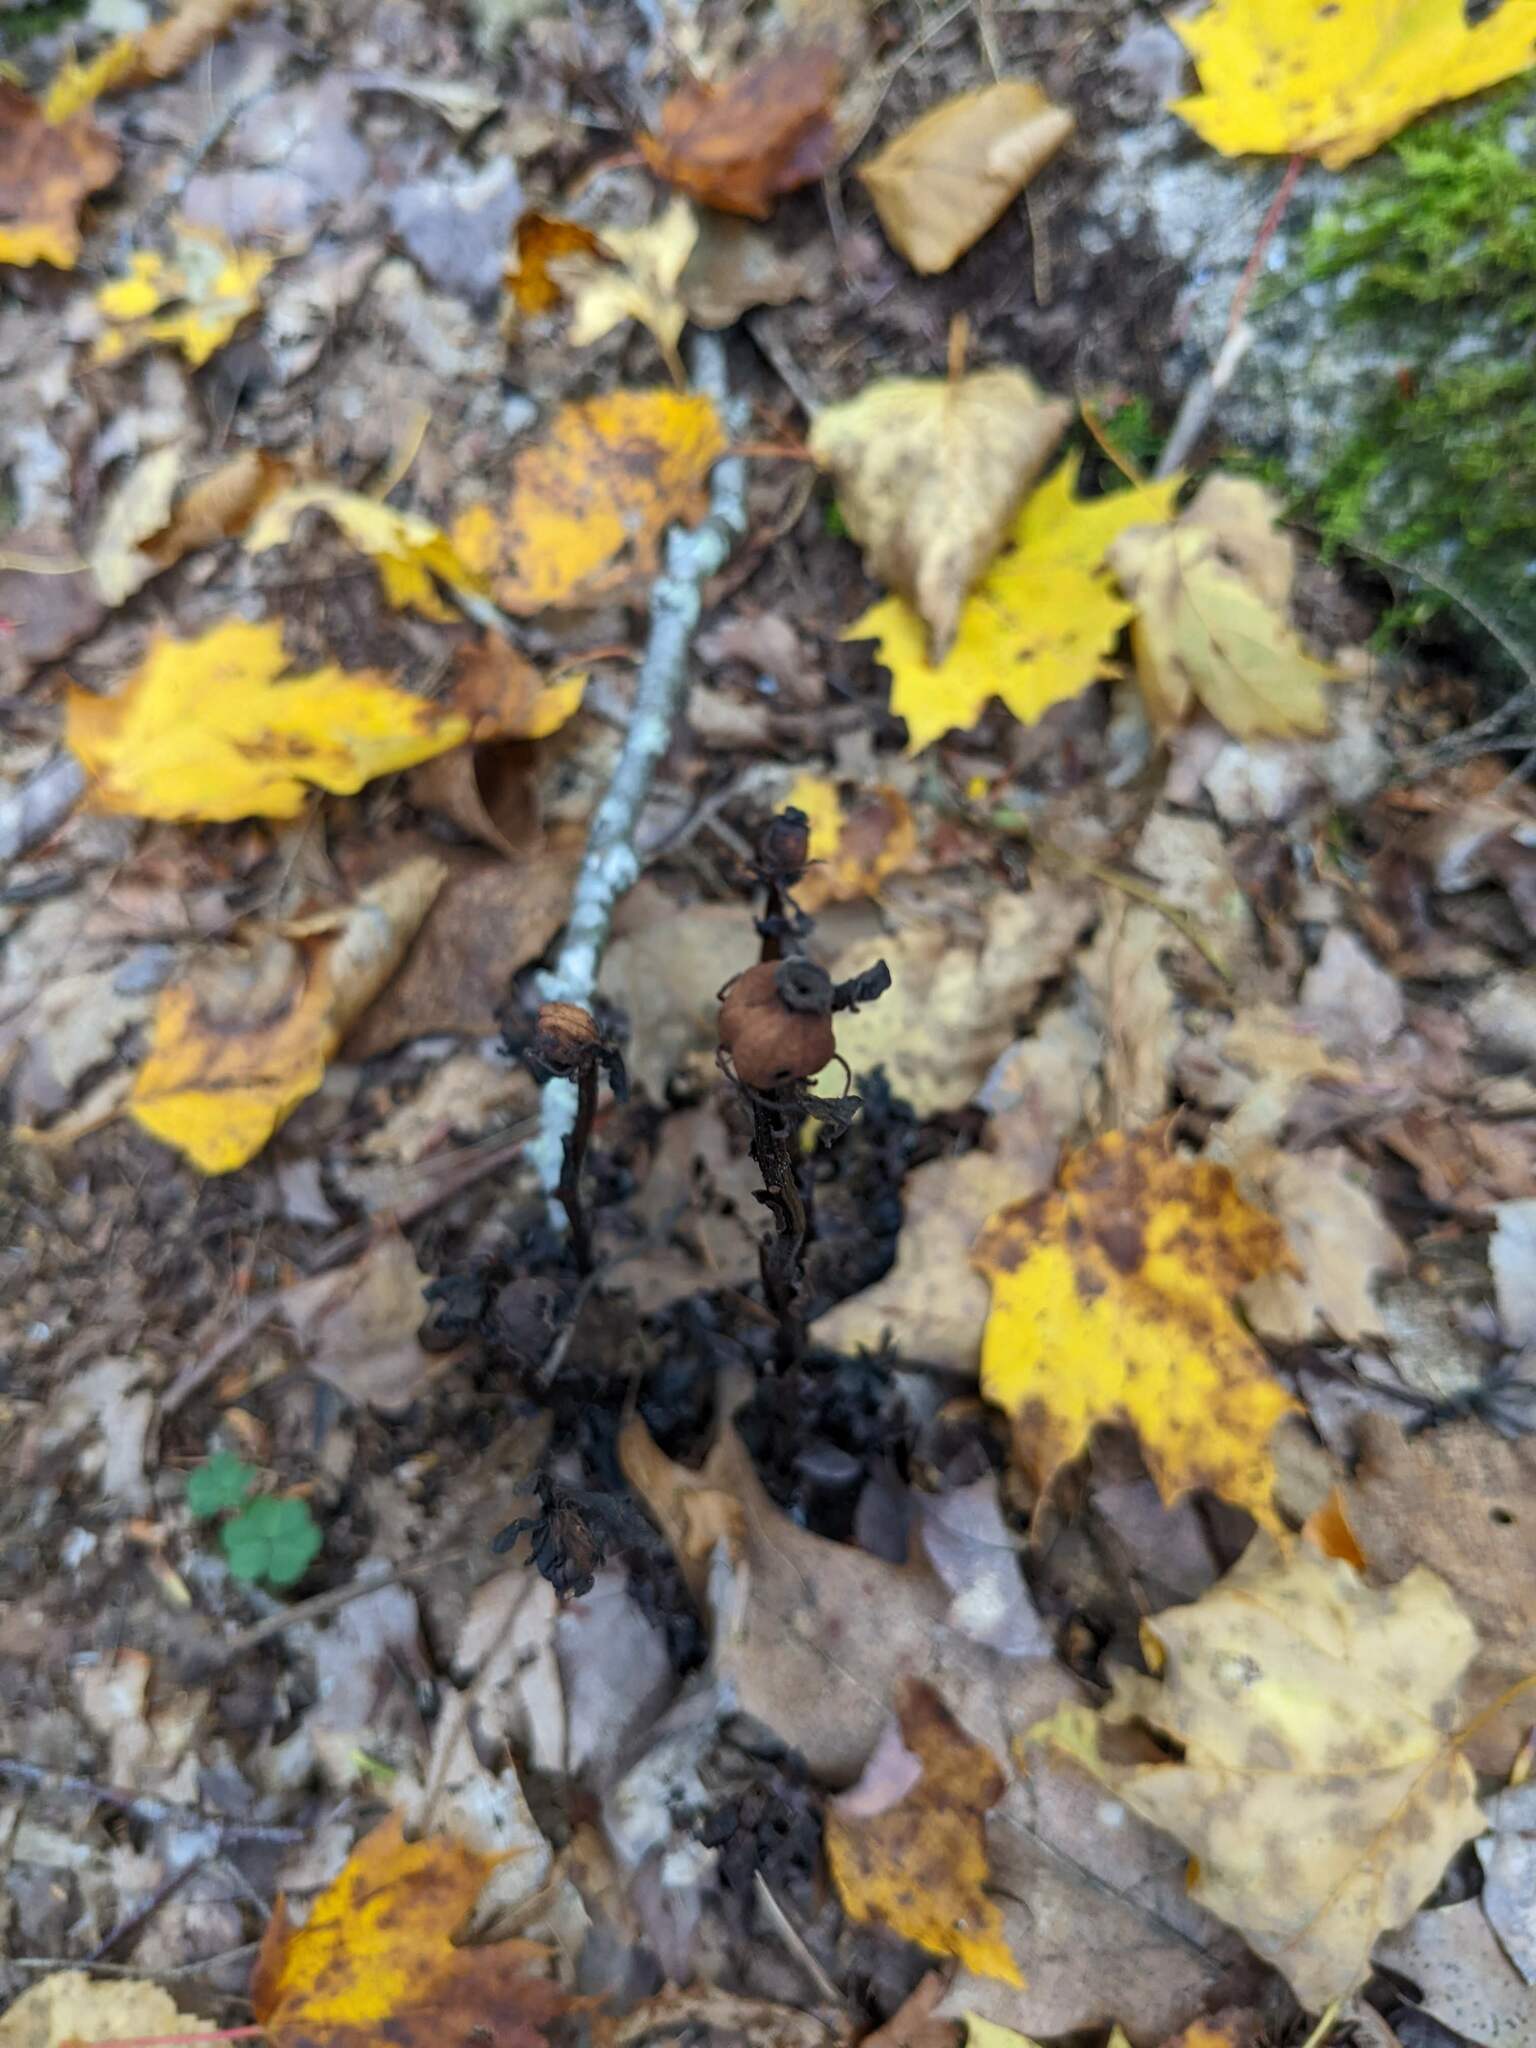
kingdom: Plantae
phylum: Tracheophyta
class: Magnoliopsida
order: Ericales
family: Ericaceae
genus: Monotropa
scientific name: Monotropa uniflora
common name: Convulsion root
